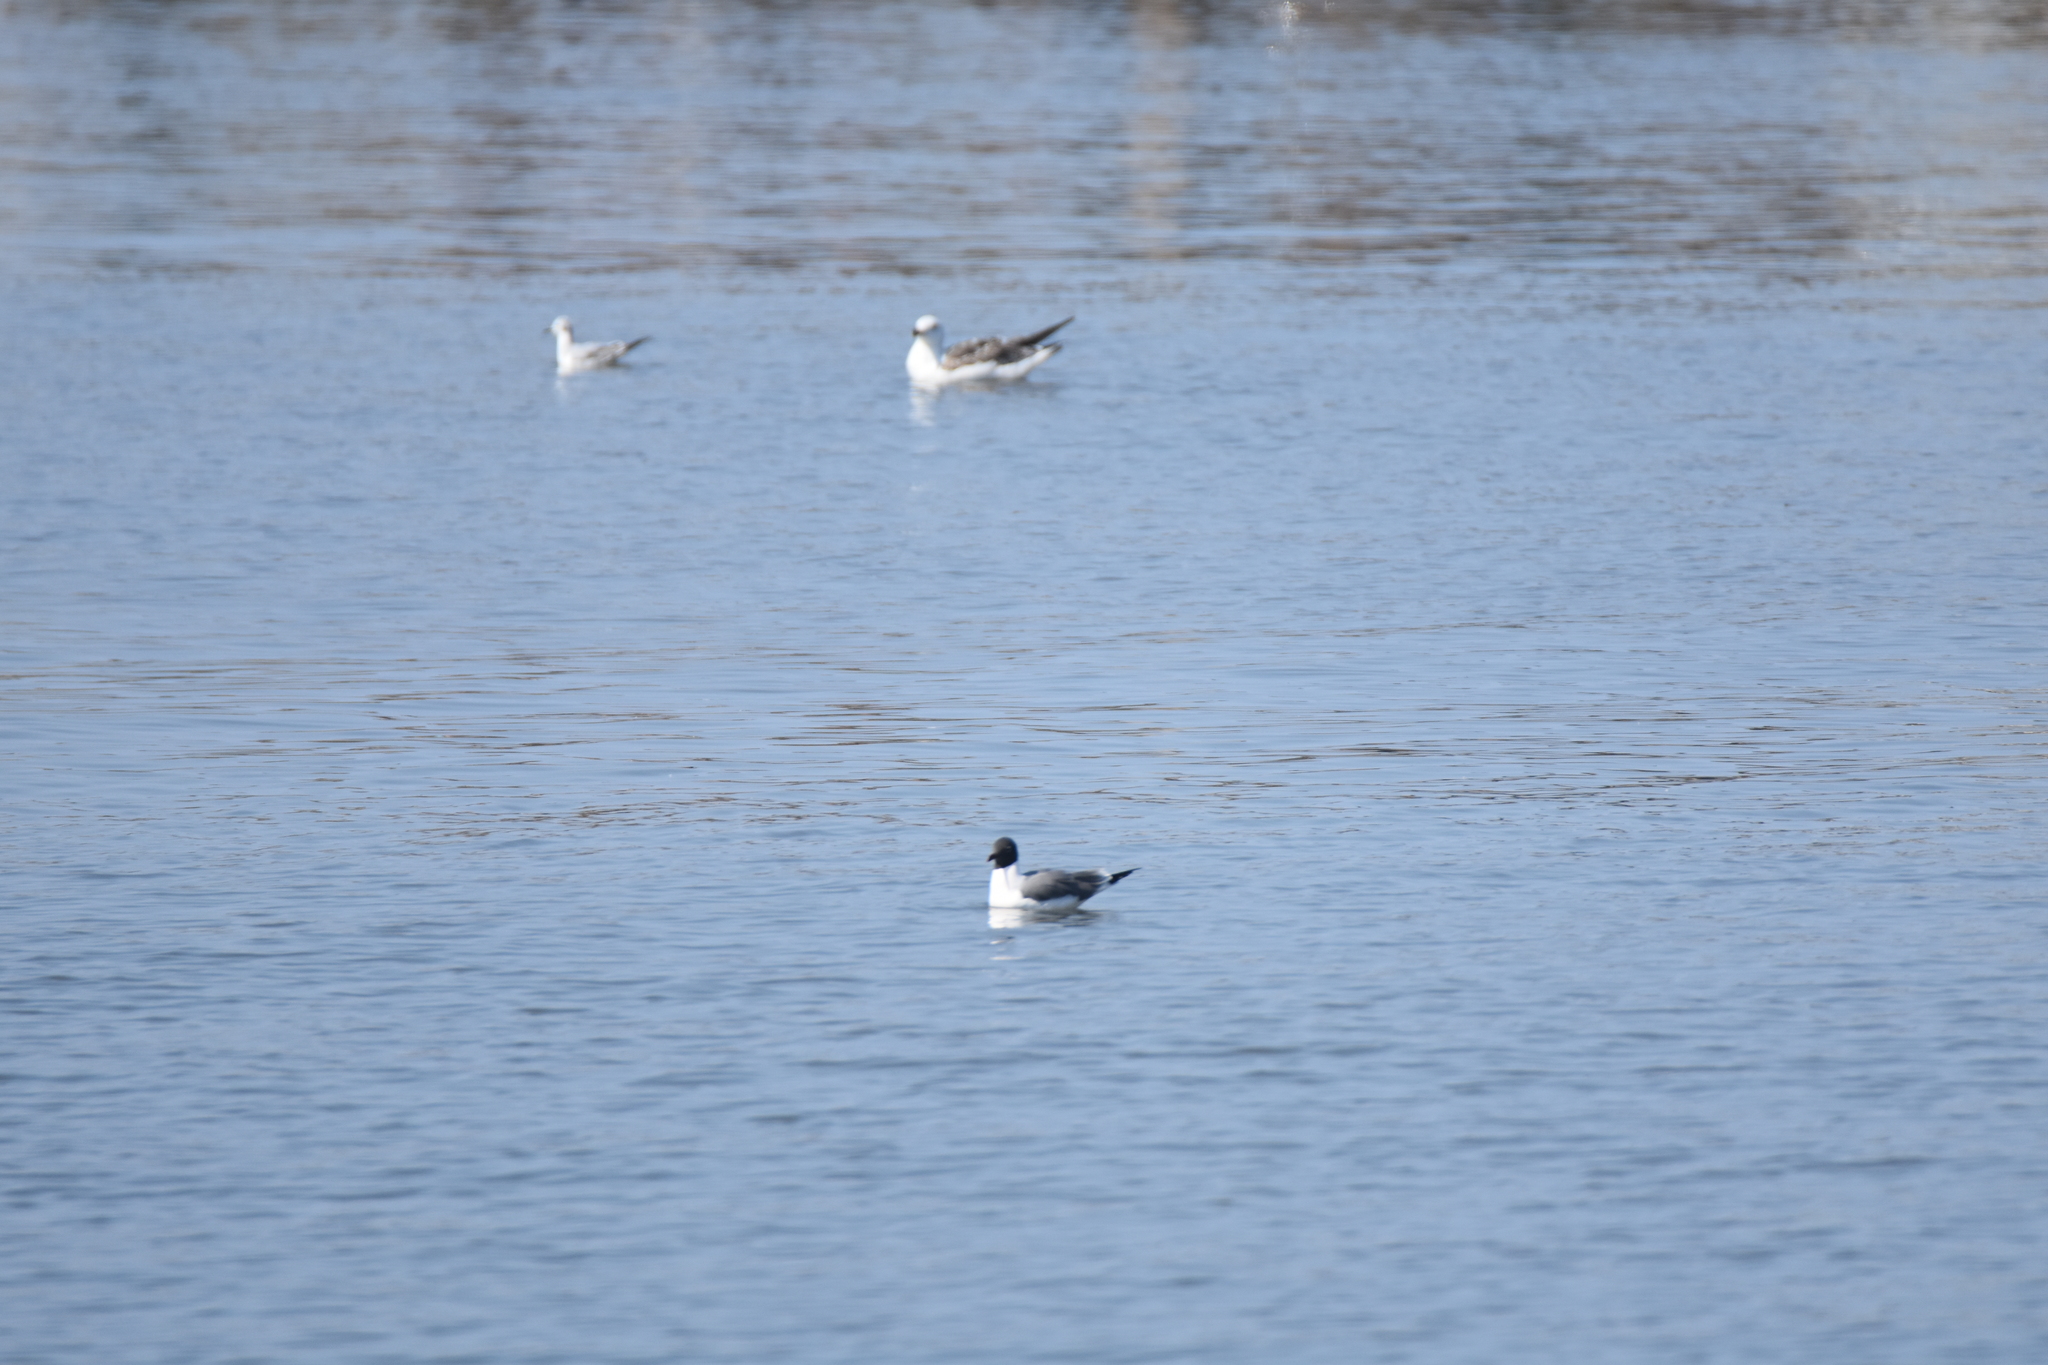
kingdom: Animalia
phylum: Chordata
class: Aves
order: Charadriiformes
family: Laridae
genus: Leucophaeus
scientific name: Leucophaeus atricilla
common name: Laughing gull
